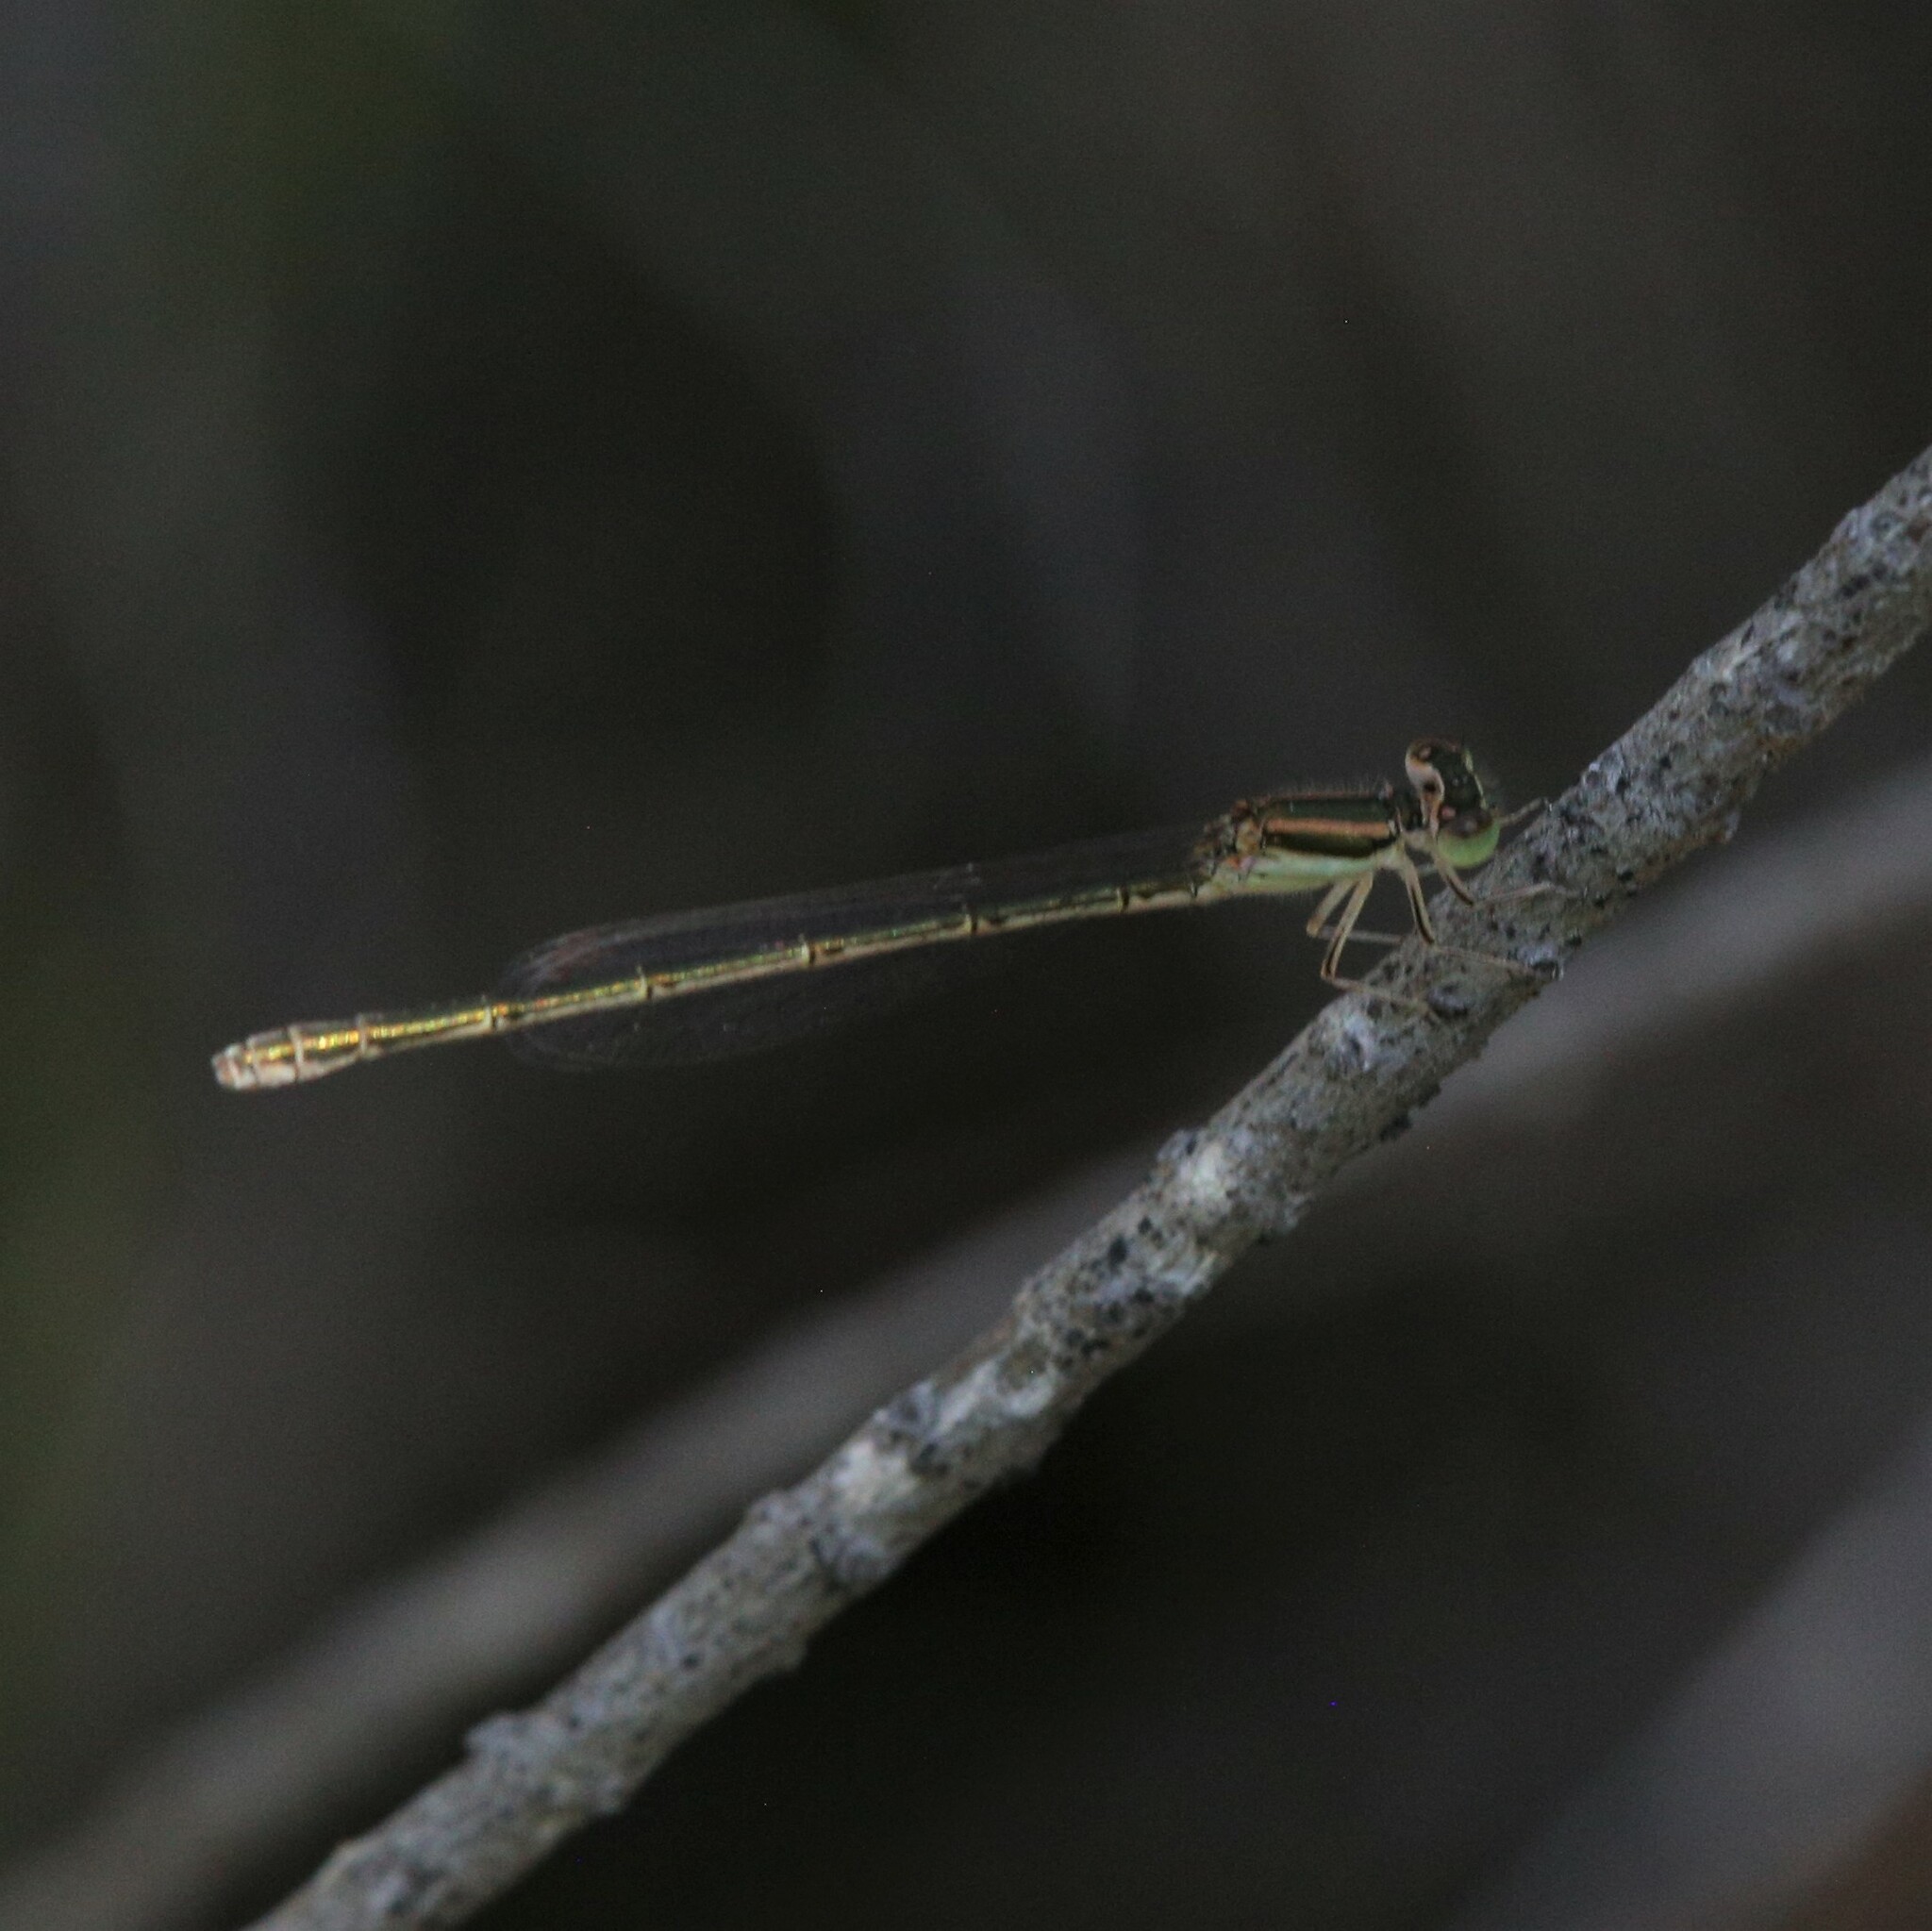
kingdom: Animalia
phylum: Arthropoda
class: Insecta
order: Odonata
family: Coenagrionidae
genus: Ischnura
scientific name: Ischnura aurora
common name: Gossamer damselfly
